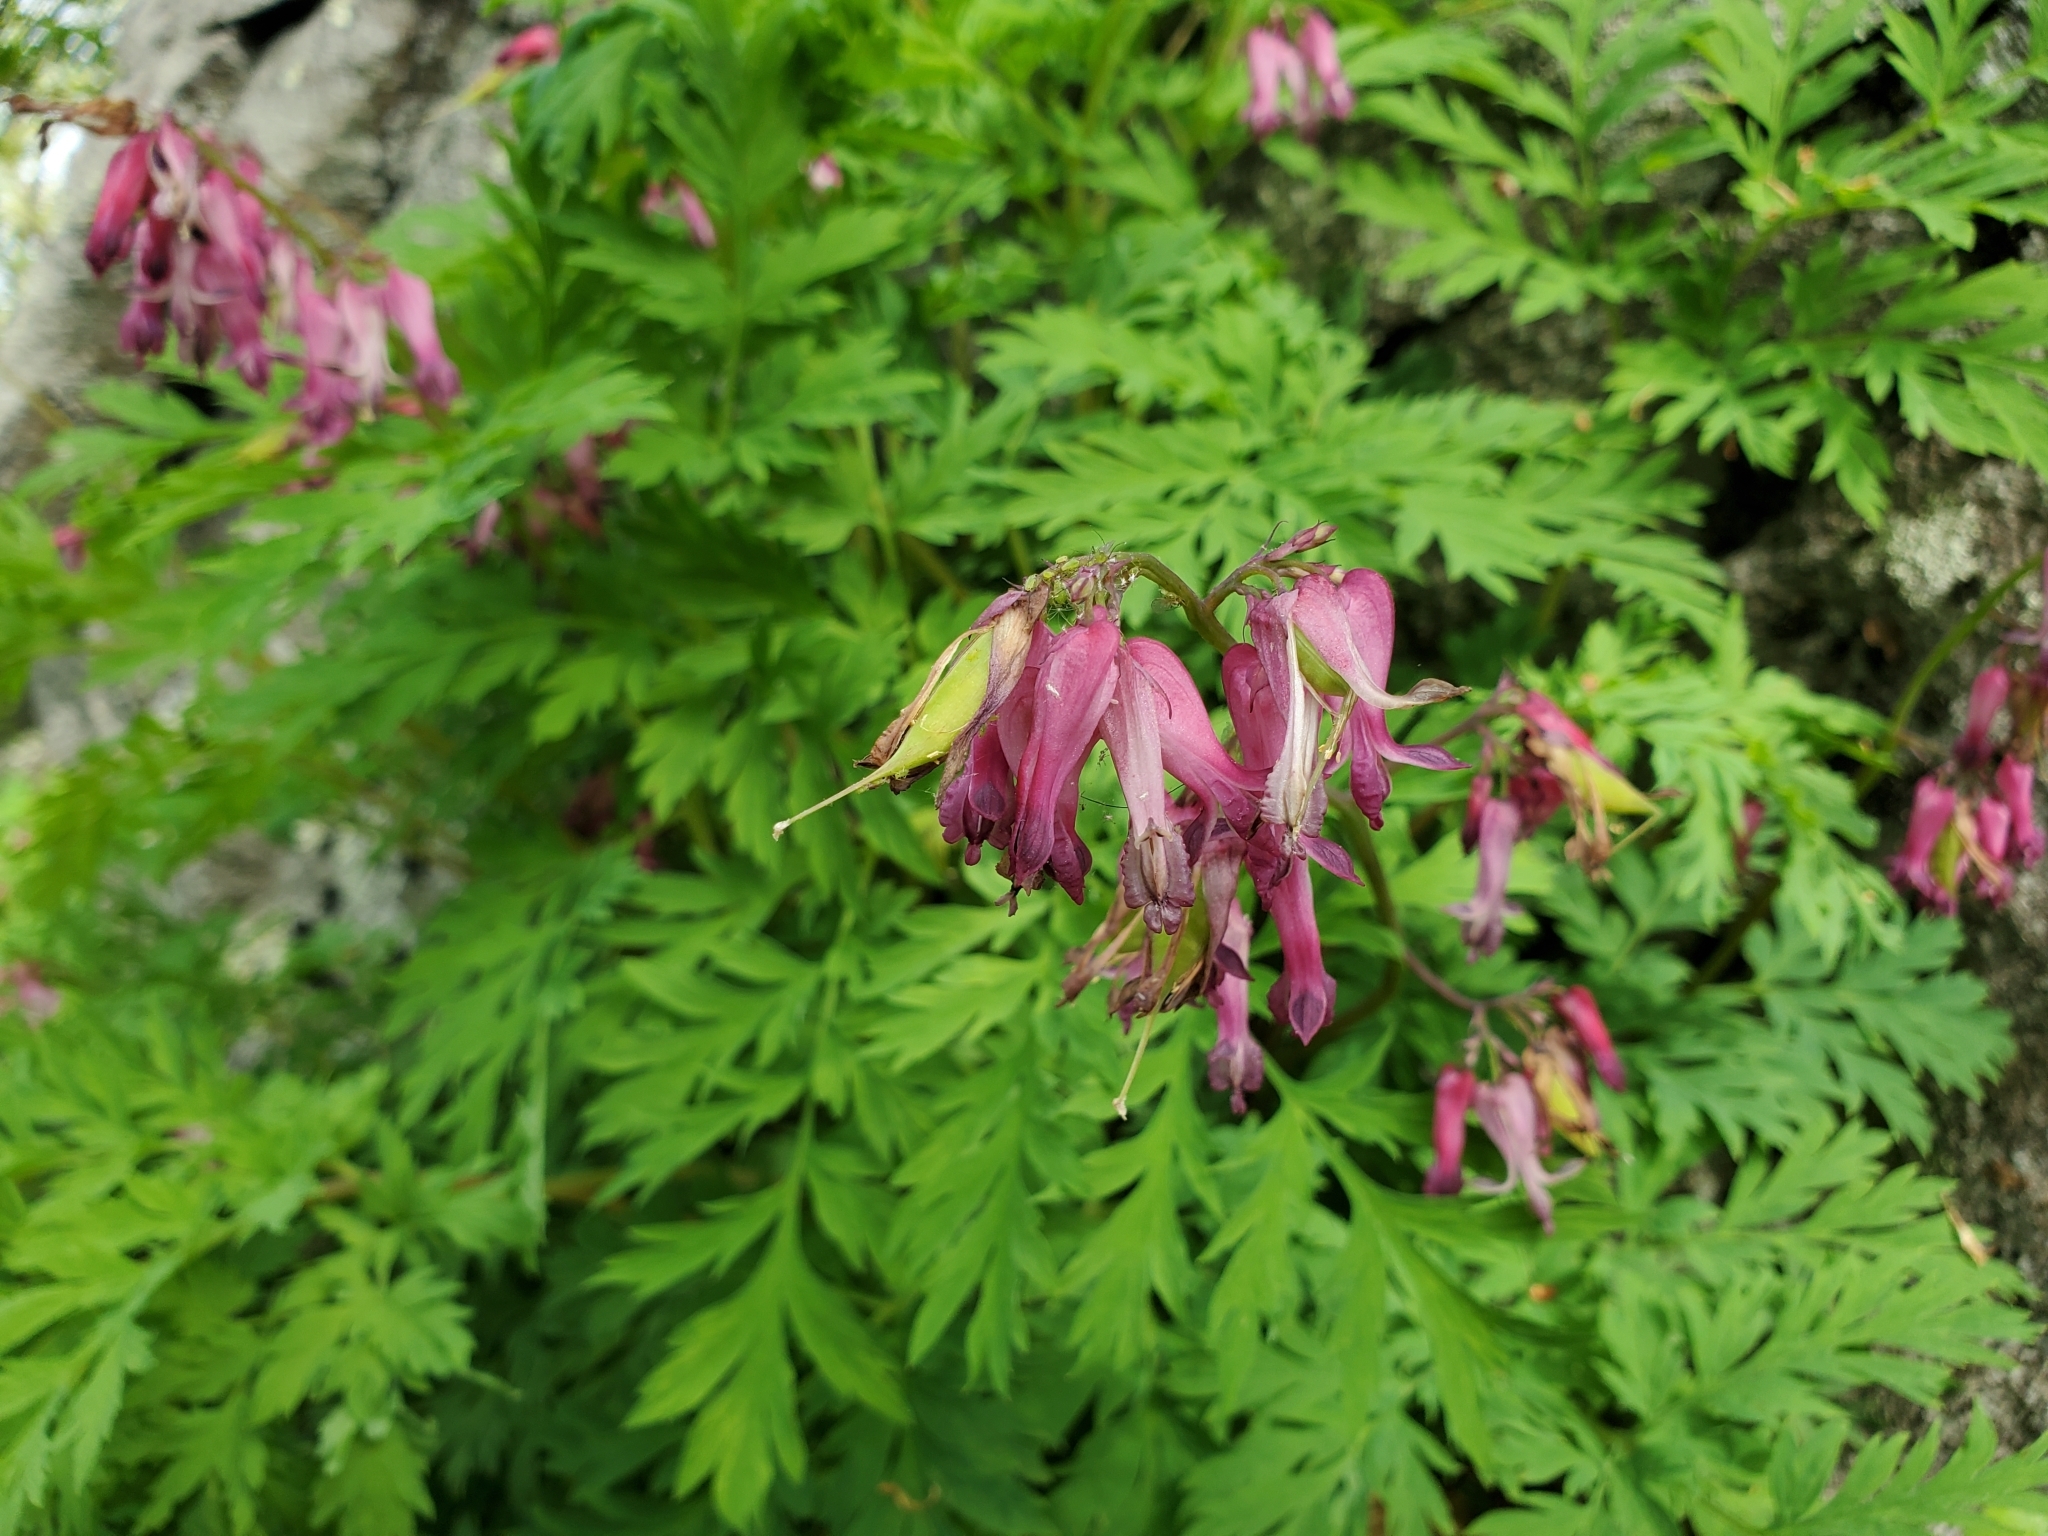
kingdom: Plantae
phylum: Tracheophyta
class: Magnoliopsida
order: Ranunculales
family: Papaveraceae
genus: Dicentra
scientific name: Dicentra eximia
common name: Turkey-corn
